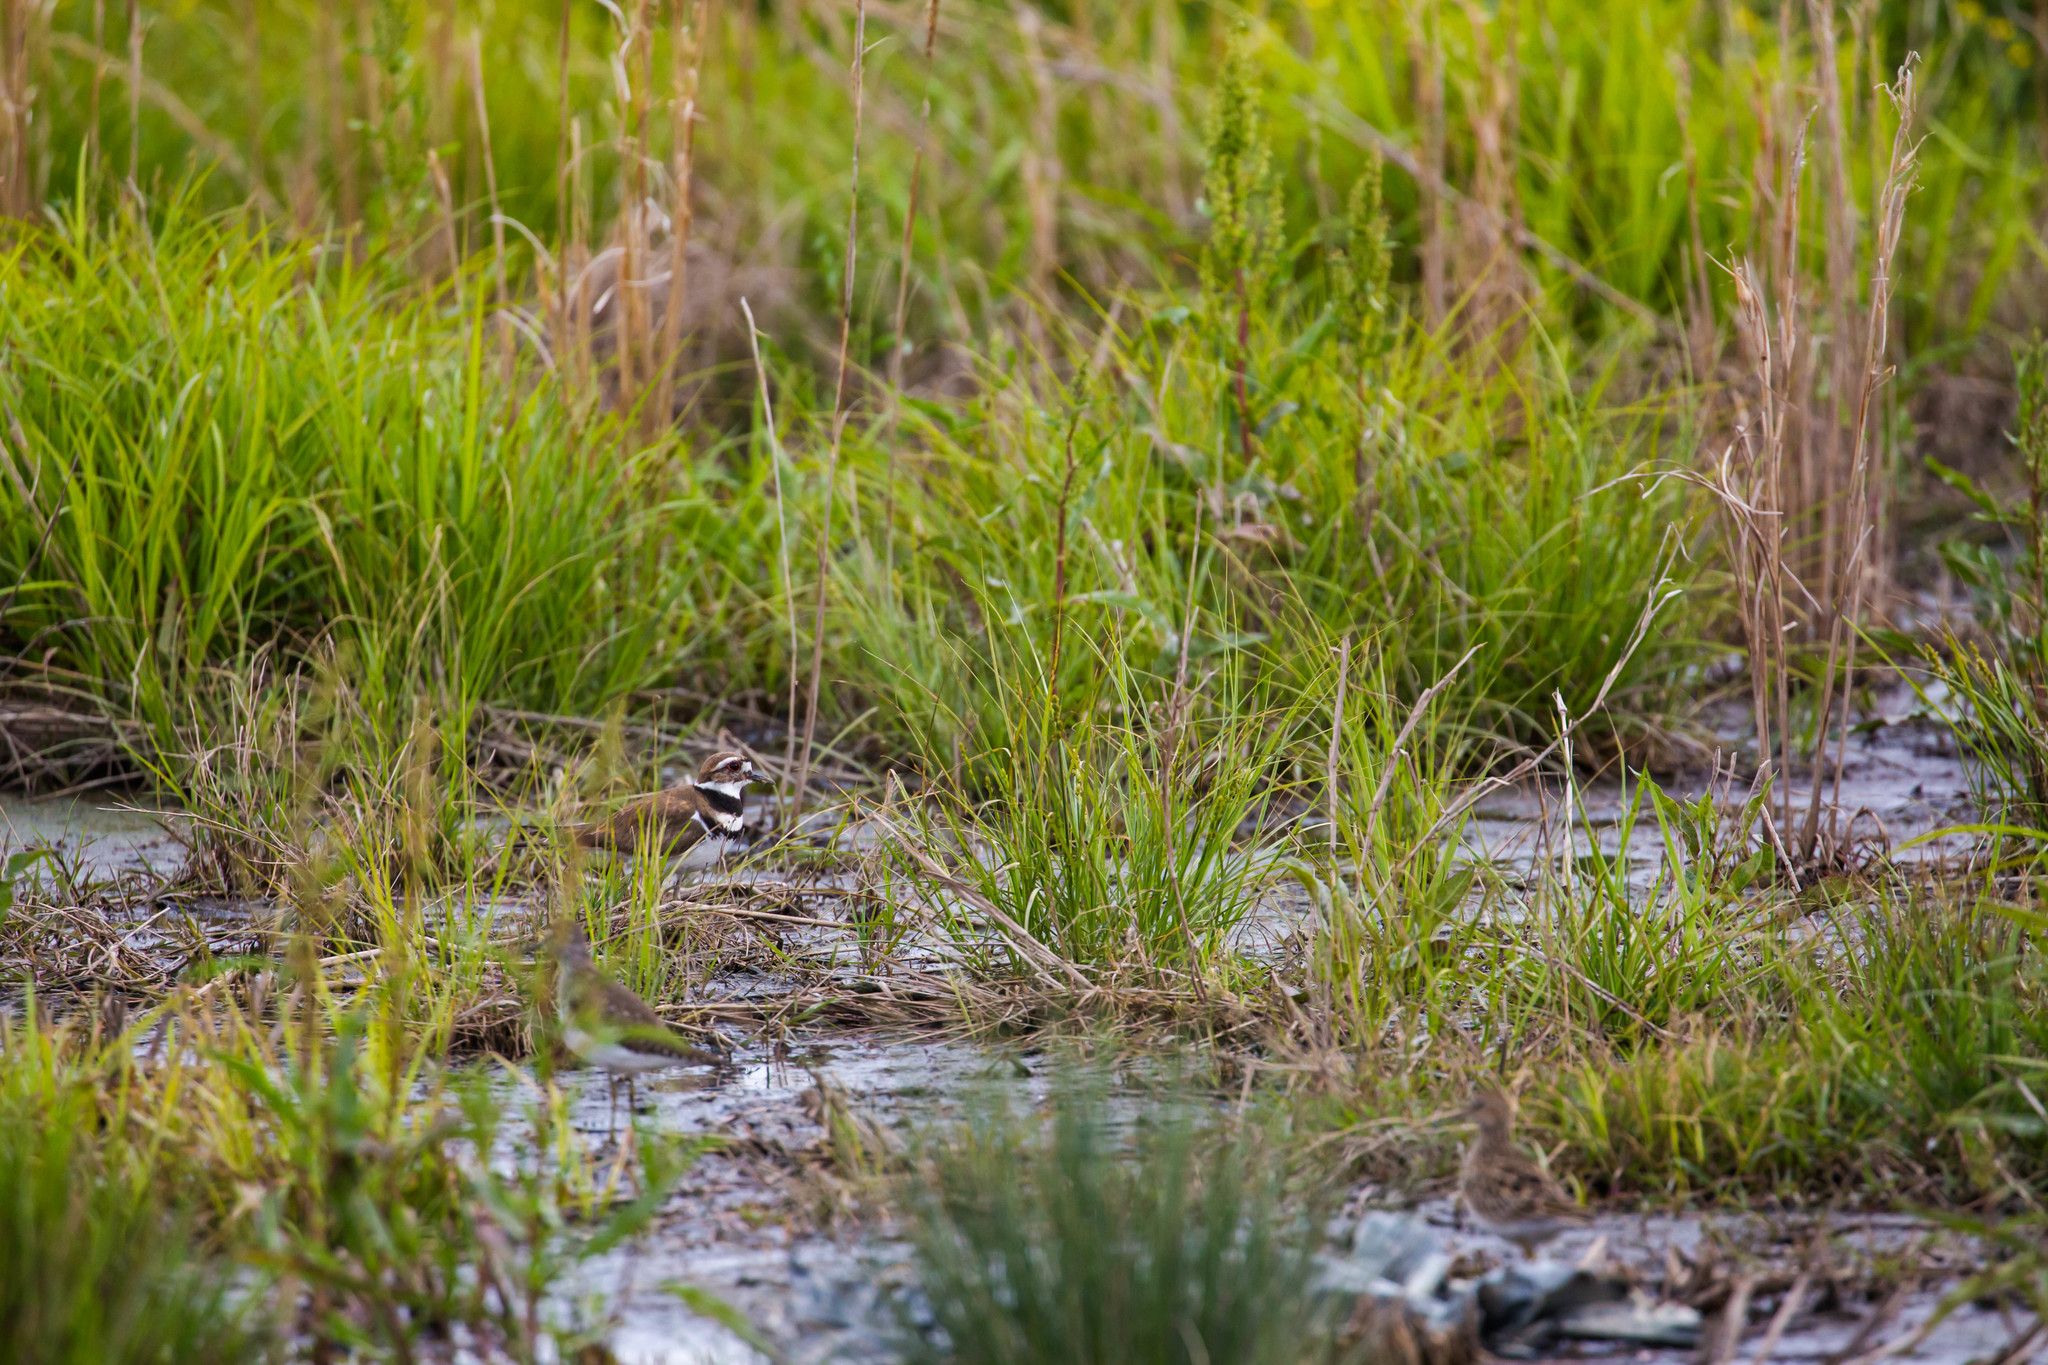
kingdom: Animalia
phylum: Chordata
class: Aves
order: Charadriiformes
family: Charadriidae
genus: Charadrius
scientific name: Charadrius vociferus
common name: Killdeer
